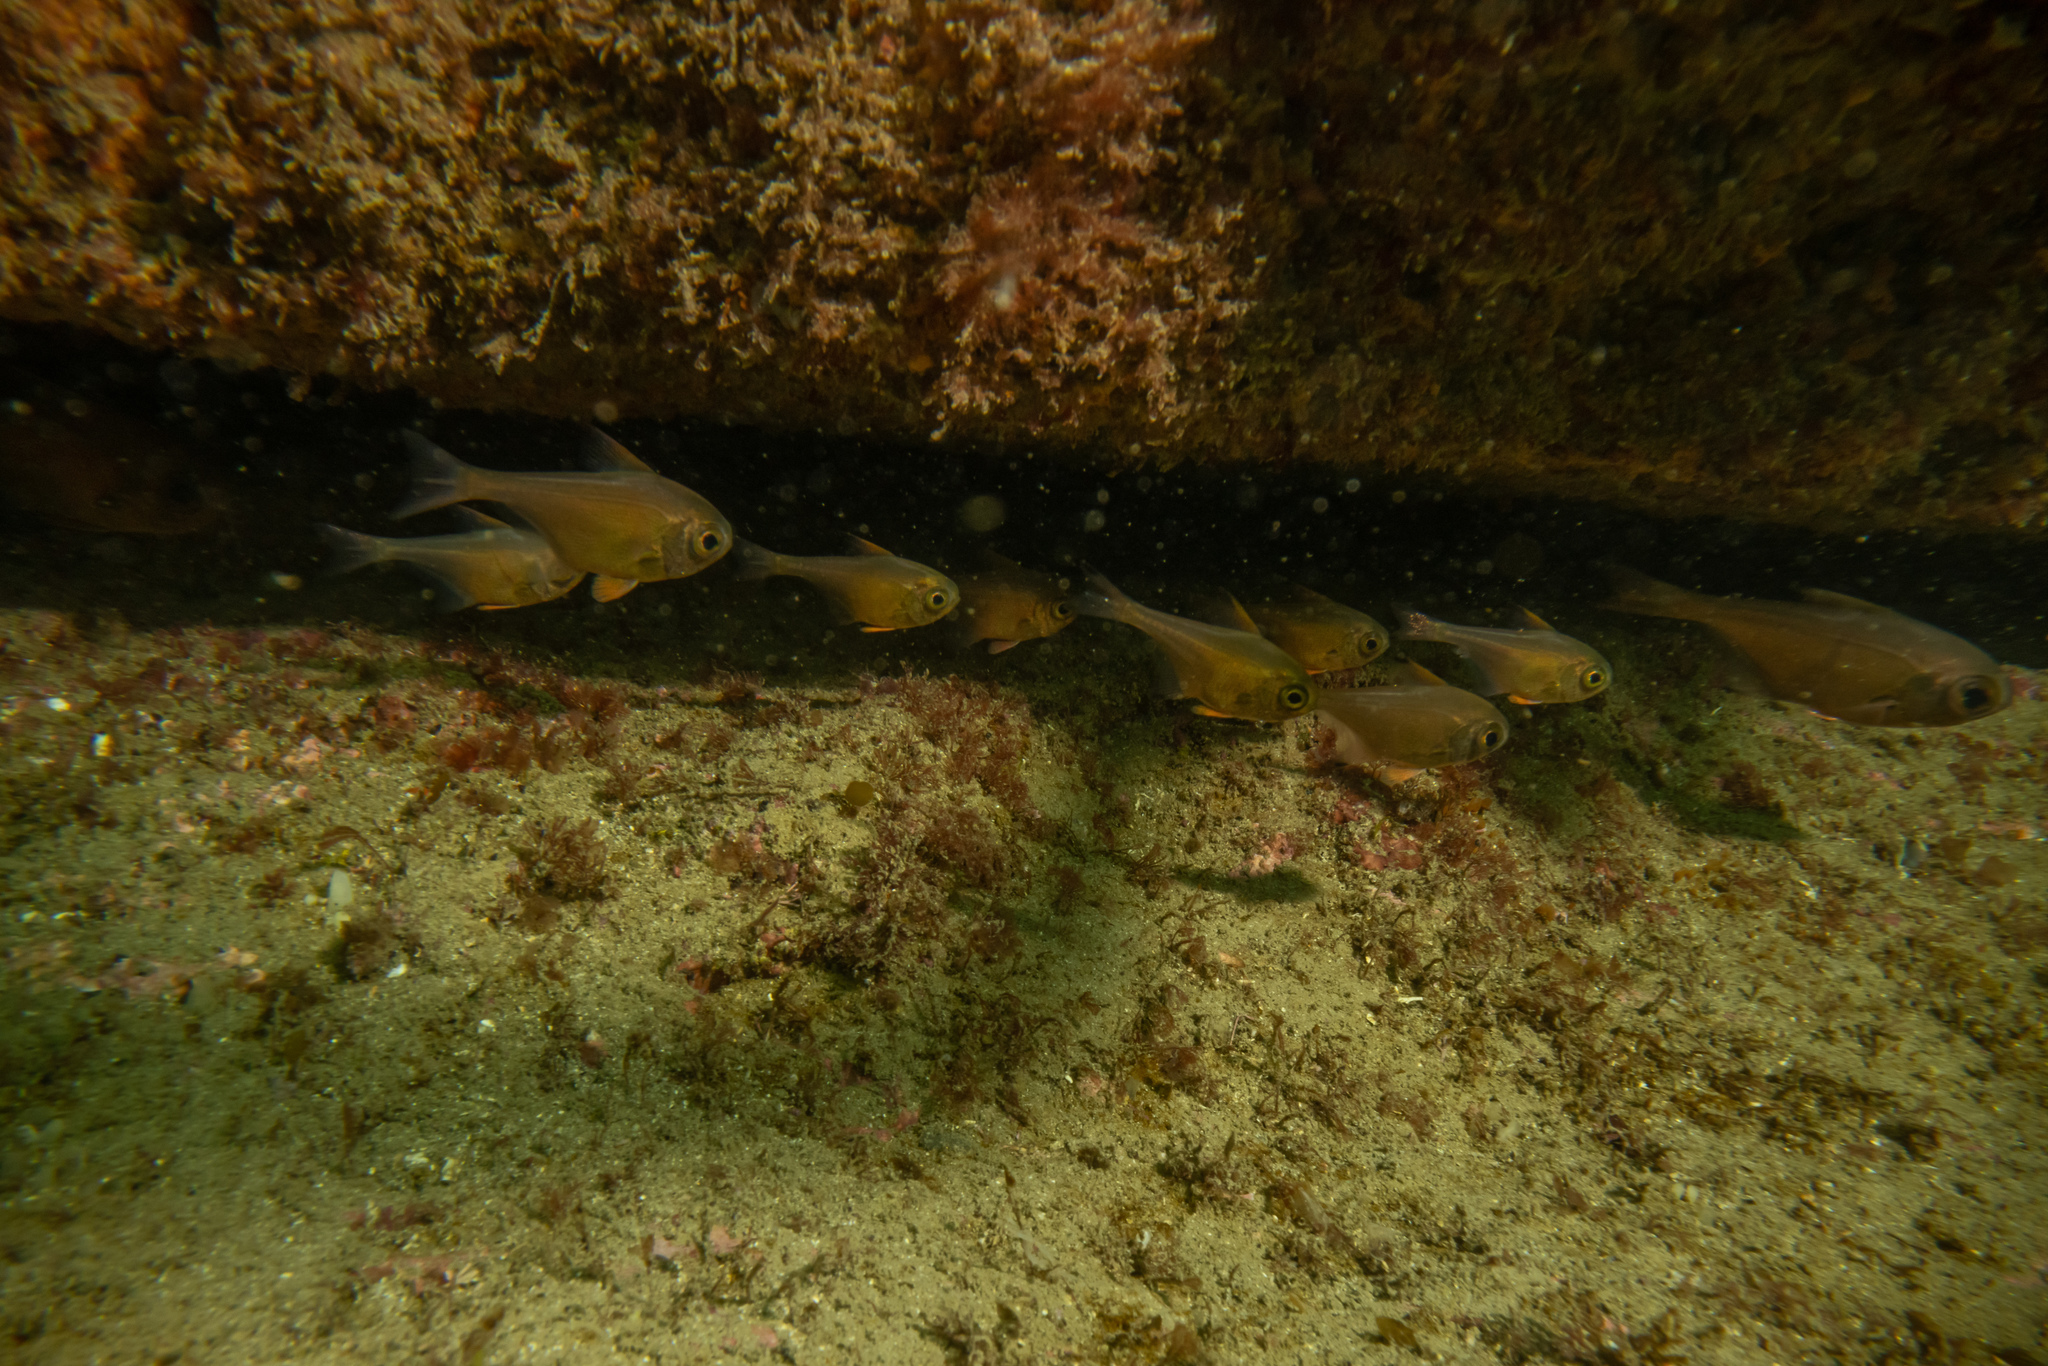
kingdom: Animalia
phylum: Chordata
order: Perciformes
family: Pempheridae
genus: Pempheris
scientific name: Pempheris adspersa
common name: Bigeye
